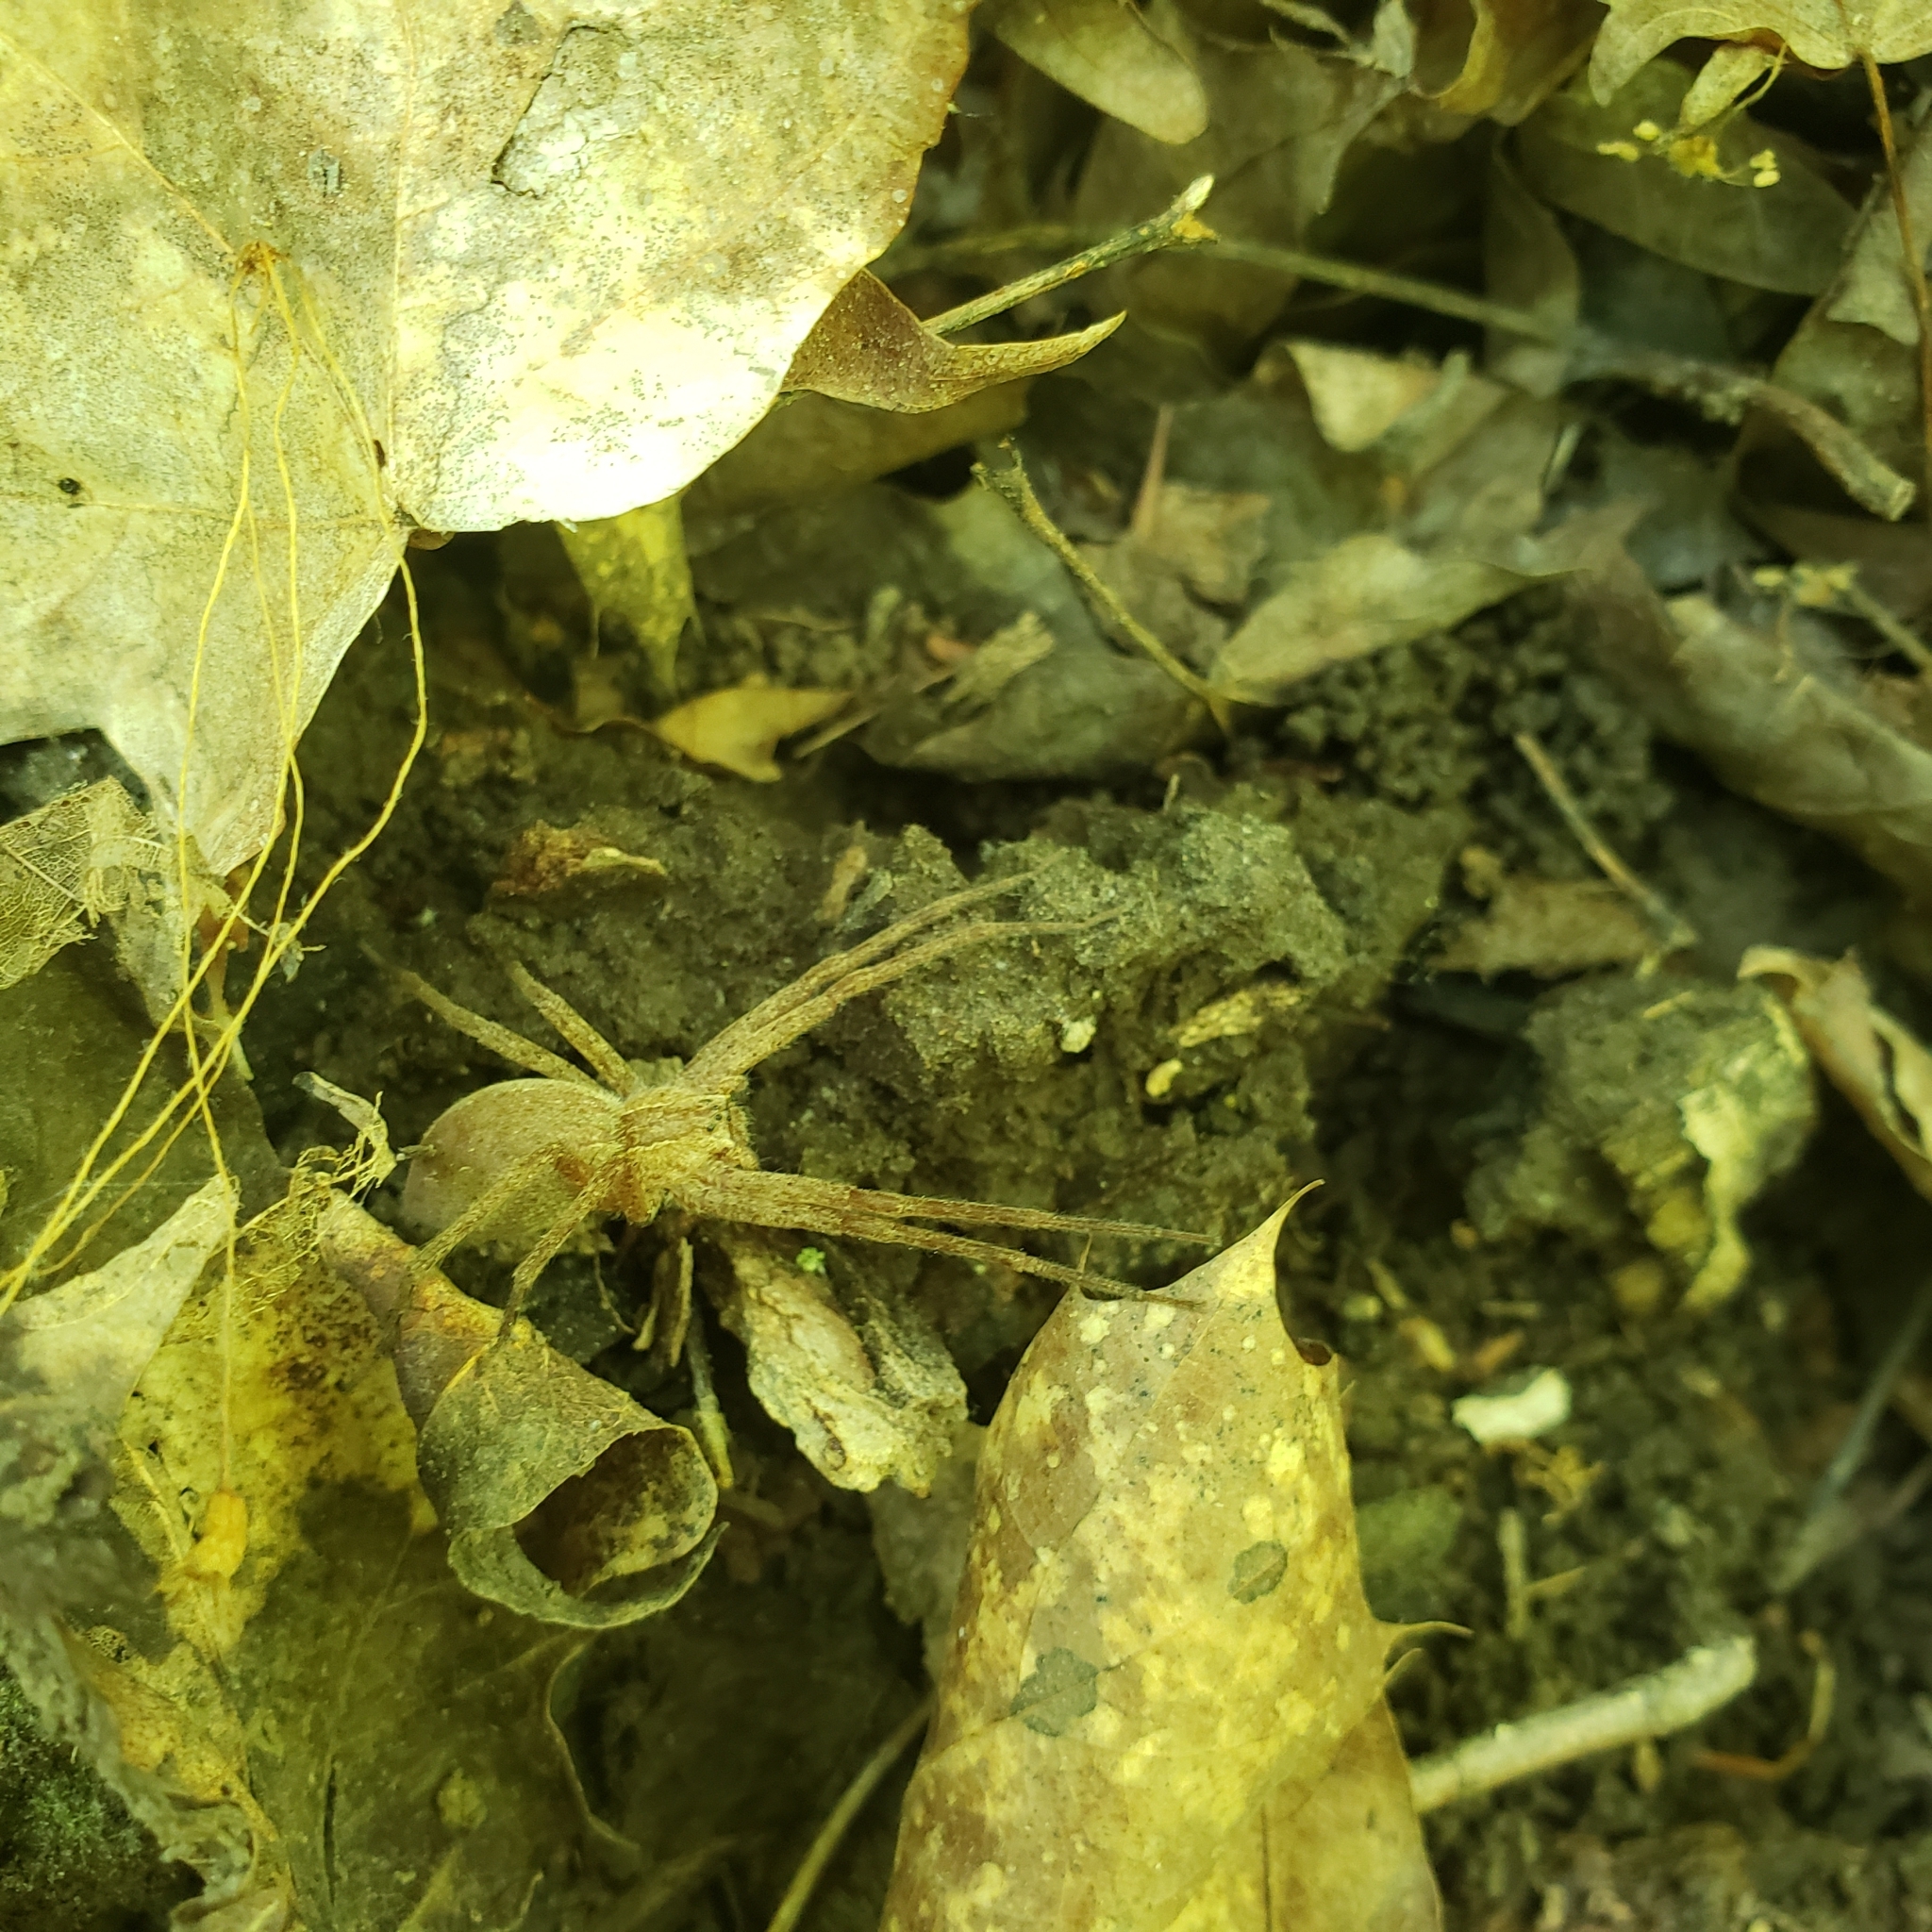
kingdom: Animalia
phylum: Arthropoda
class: Arachnida
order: Araneae
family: Pisauridae
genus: Pisaurina
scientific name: Pisaurina mira
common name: American nursery web spider
